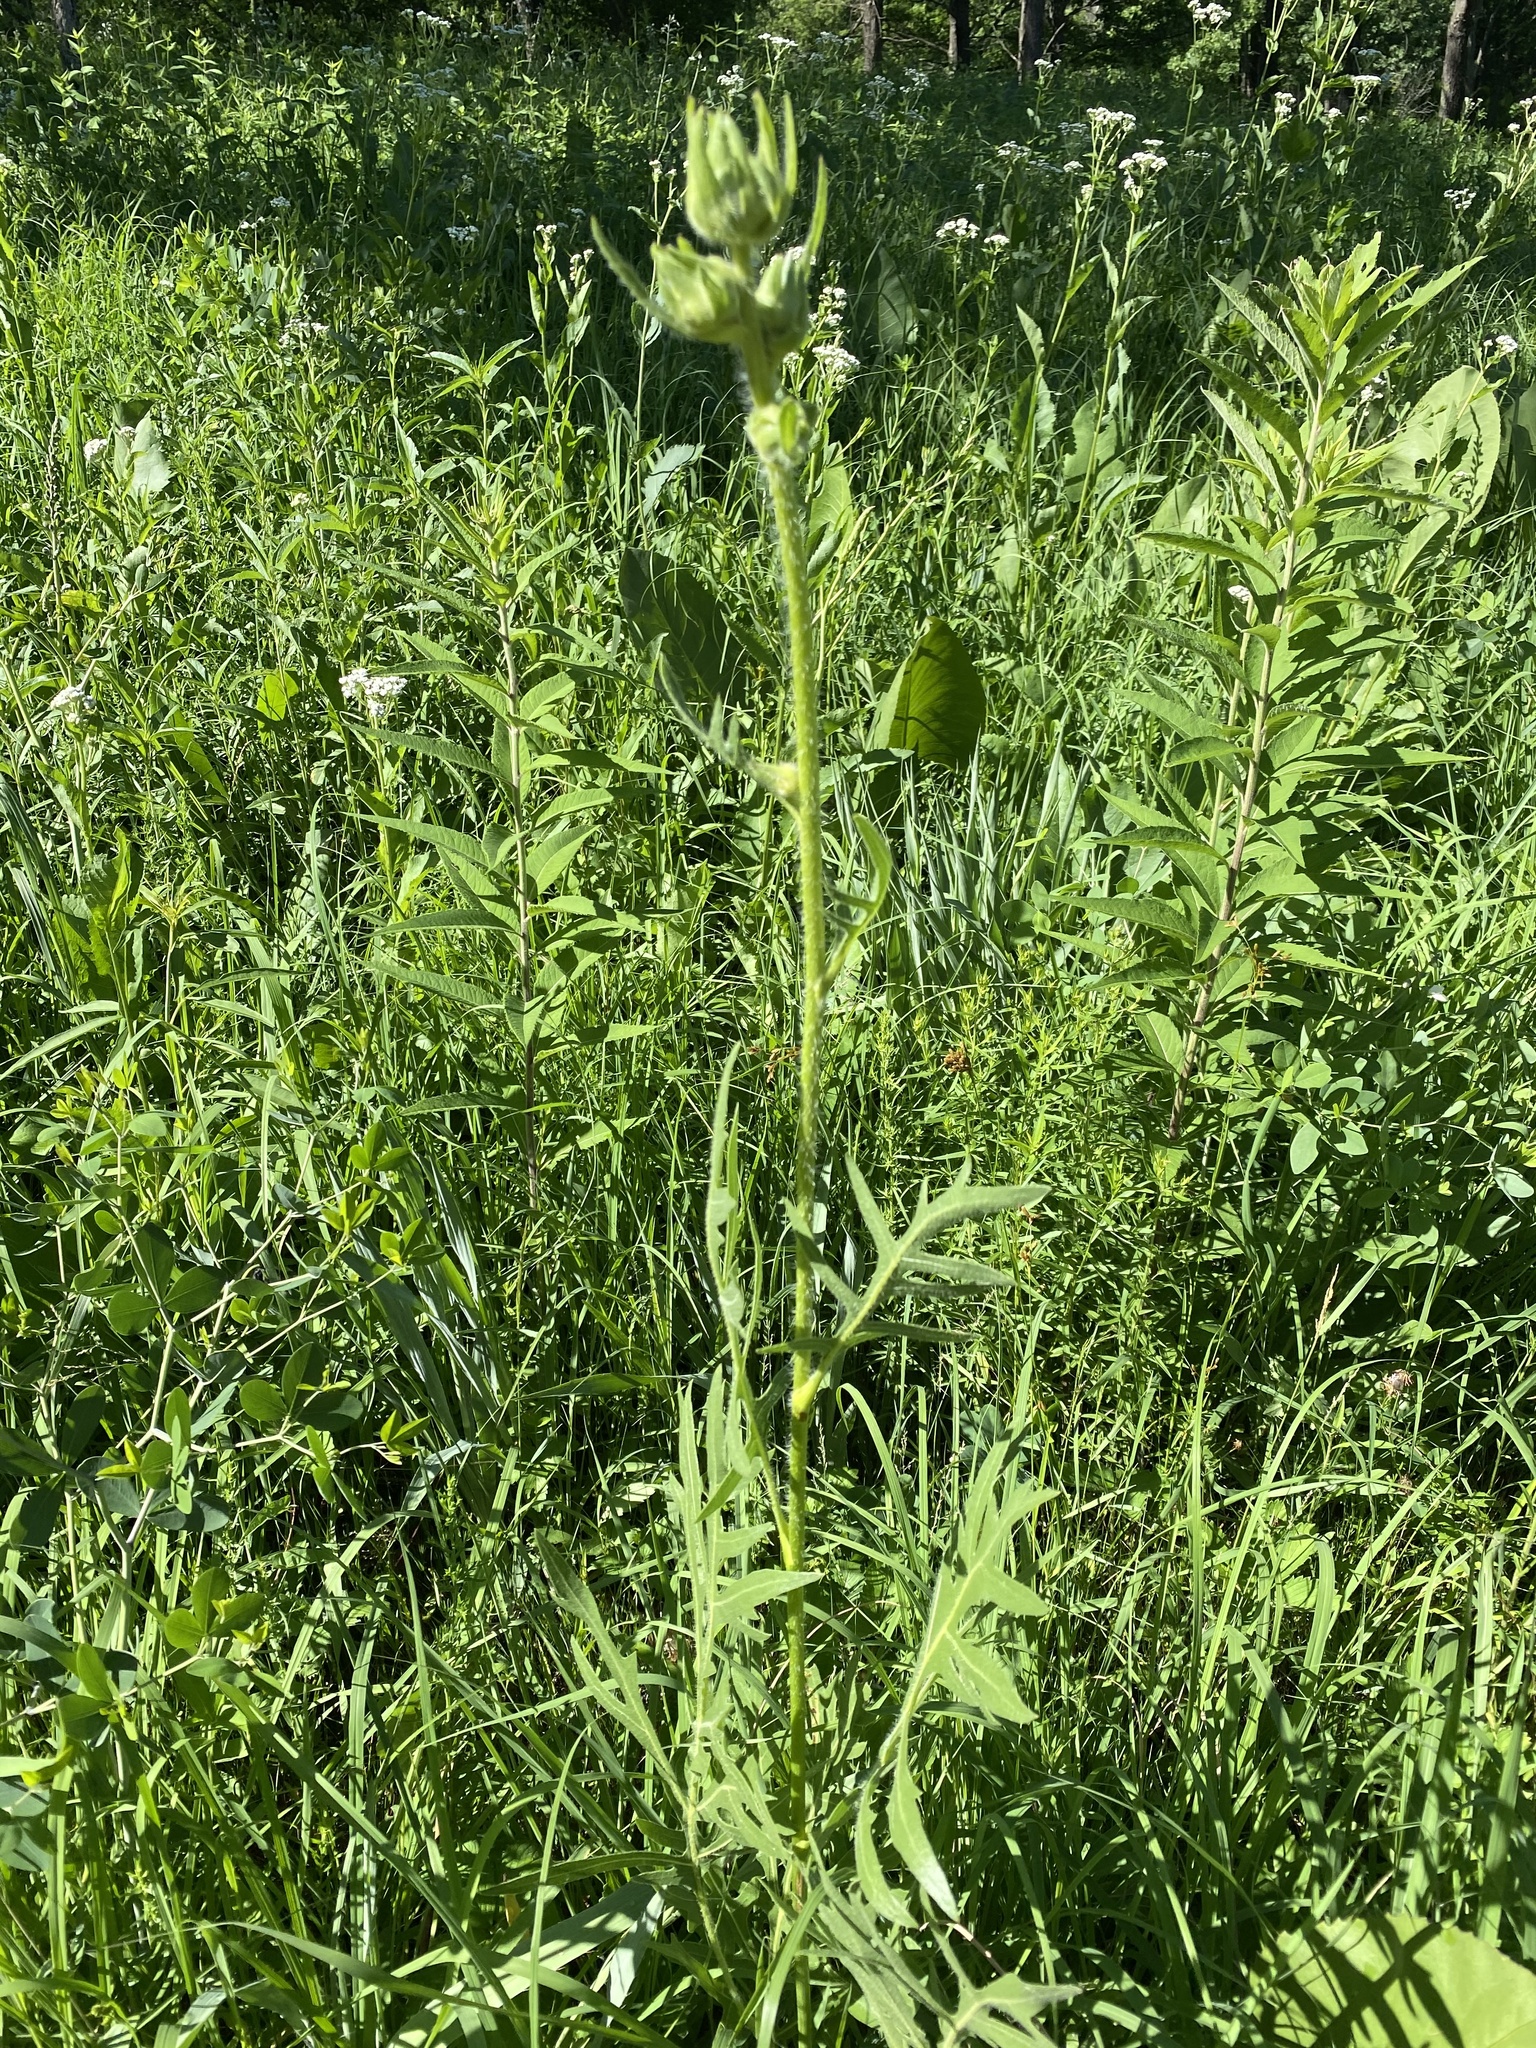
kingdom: Plantae
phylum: Tracheophyta
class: Magnoliopsida
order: Asterales
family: Asteraceae
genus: Silphium
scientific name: Silphium laciniatum
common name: Polarplant
